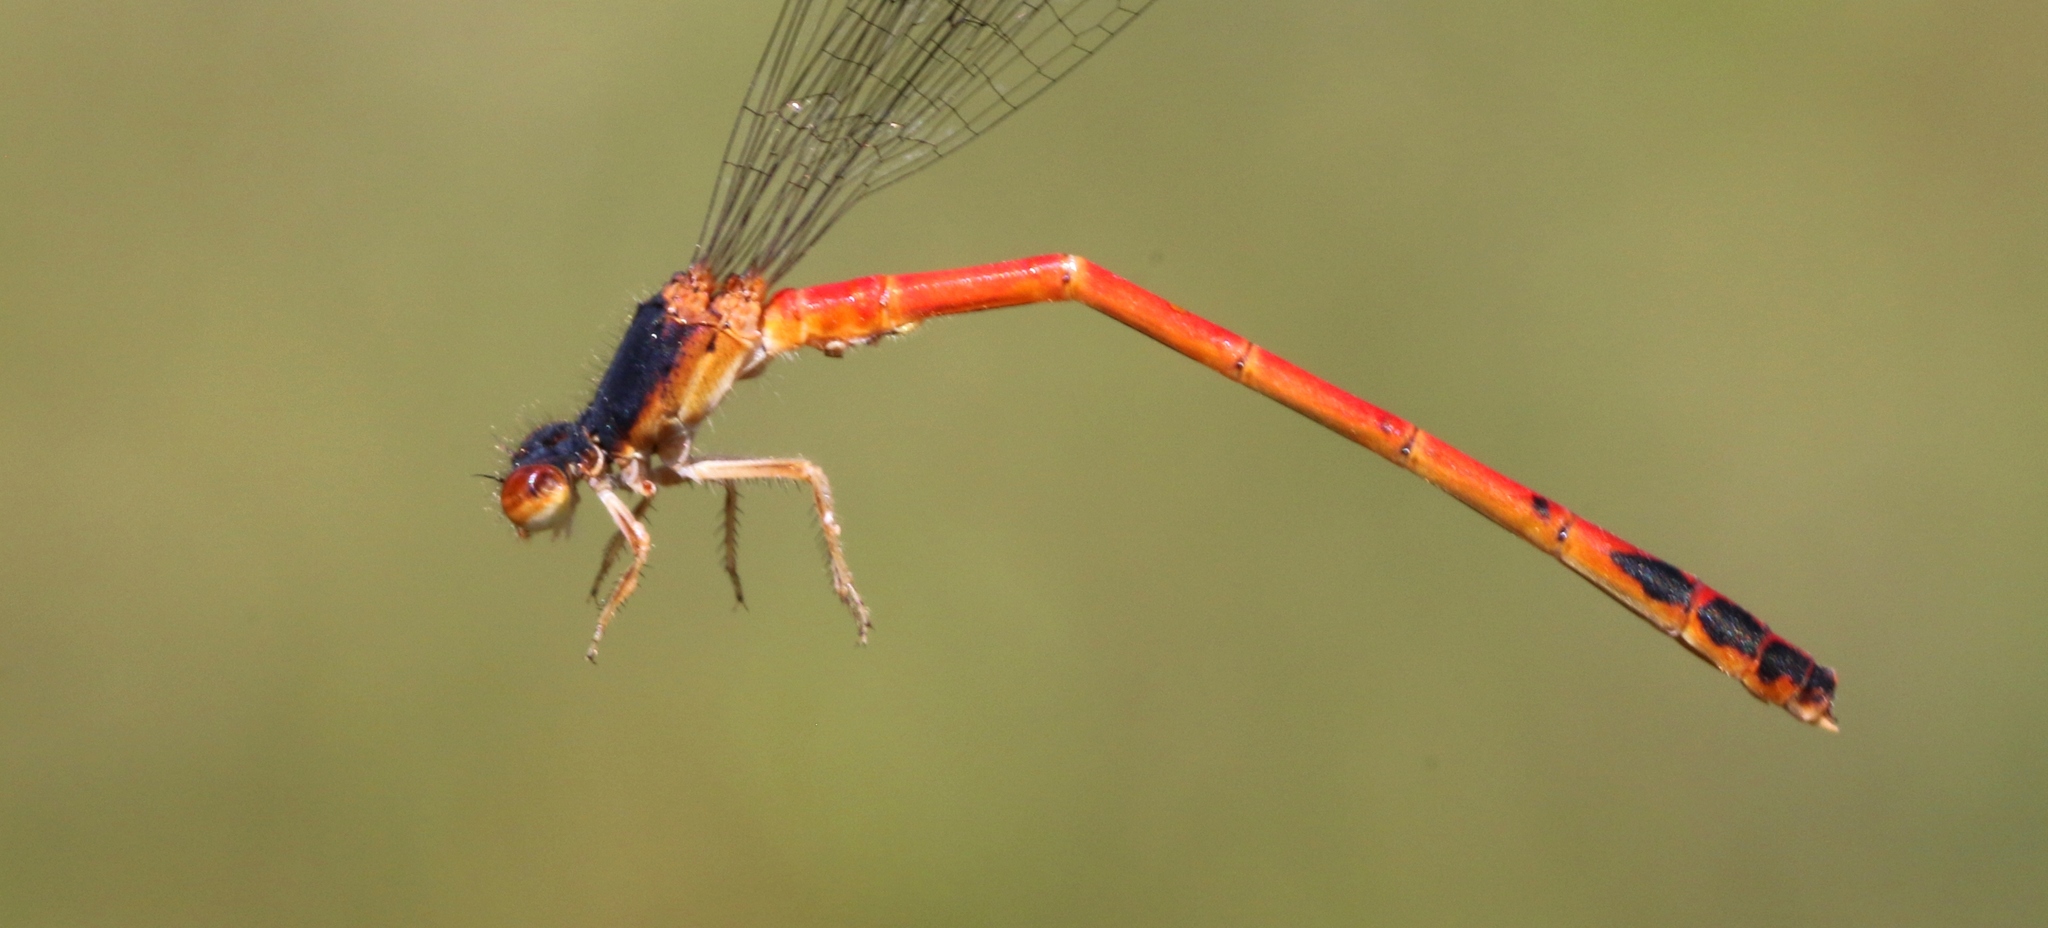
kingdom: Animalia
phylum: Arthropoda
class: Insecta
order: Odonata
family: Coenagrionidae
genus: Amphiagrion
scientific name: Amphiagrion saucium
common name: Eastern red damsel
